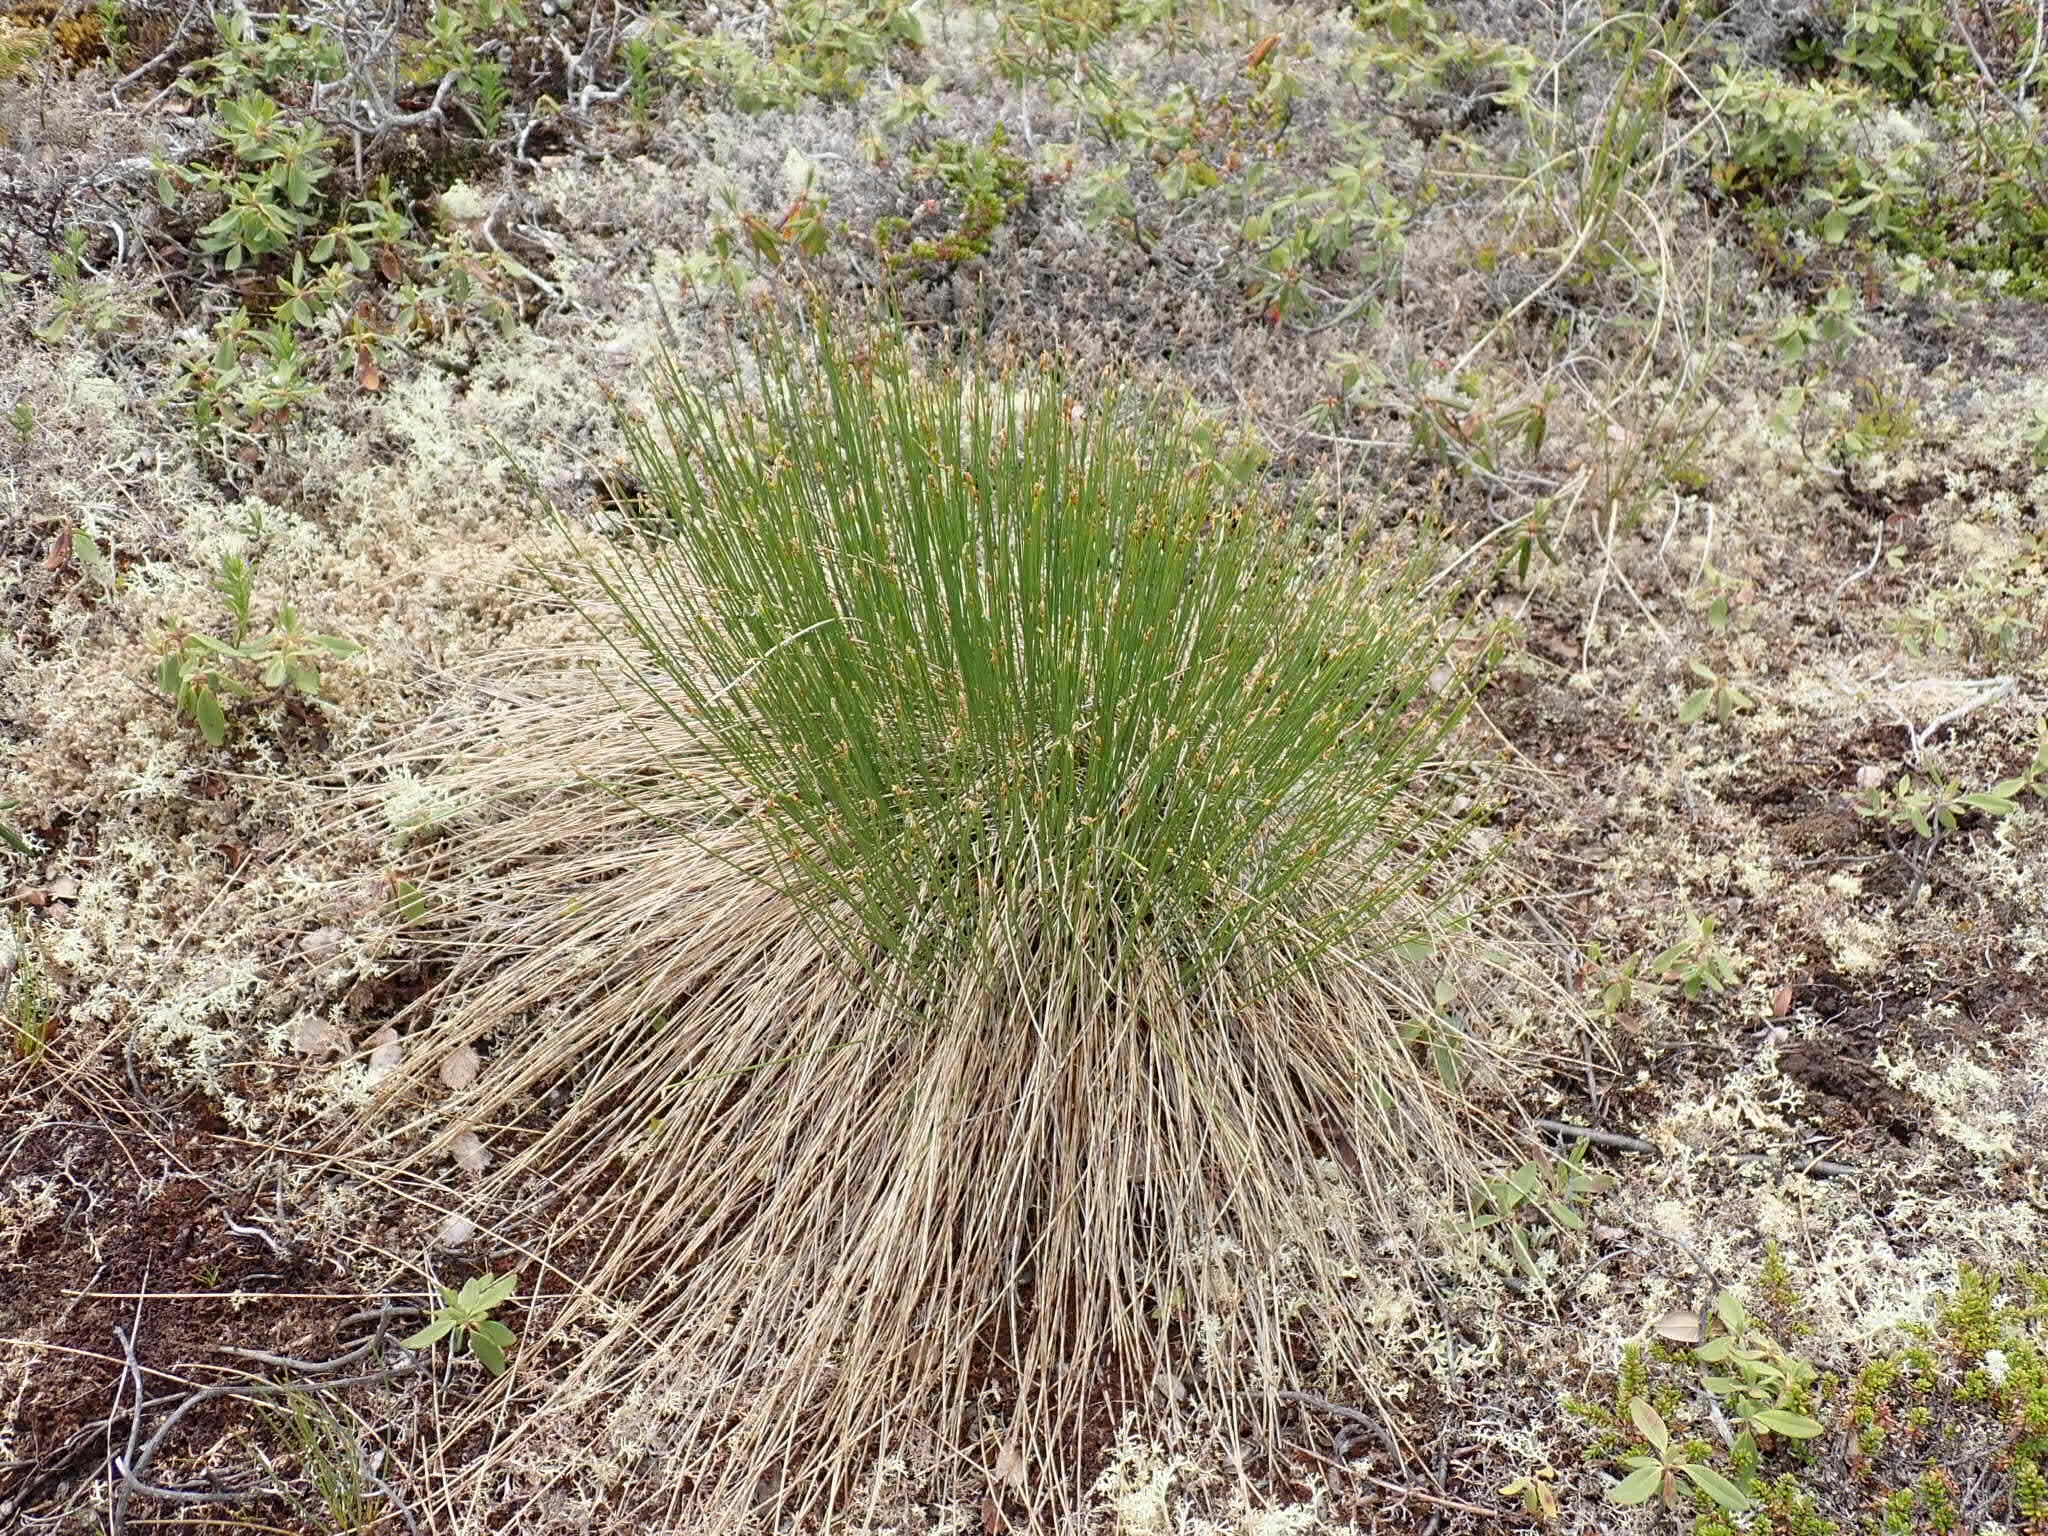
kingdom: Plantae
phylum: Tracheophyta
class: Liliopsida
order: Poales
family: Cyperaceae
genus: Trichophorum
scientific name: Trichophorum cespitosum
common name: Cespitose bulrush
